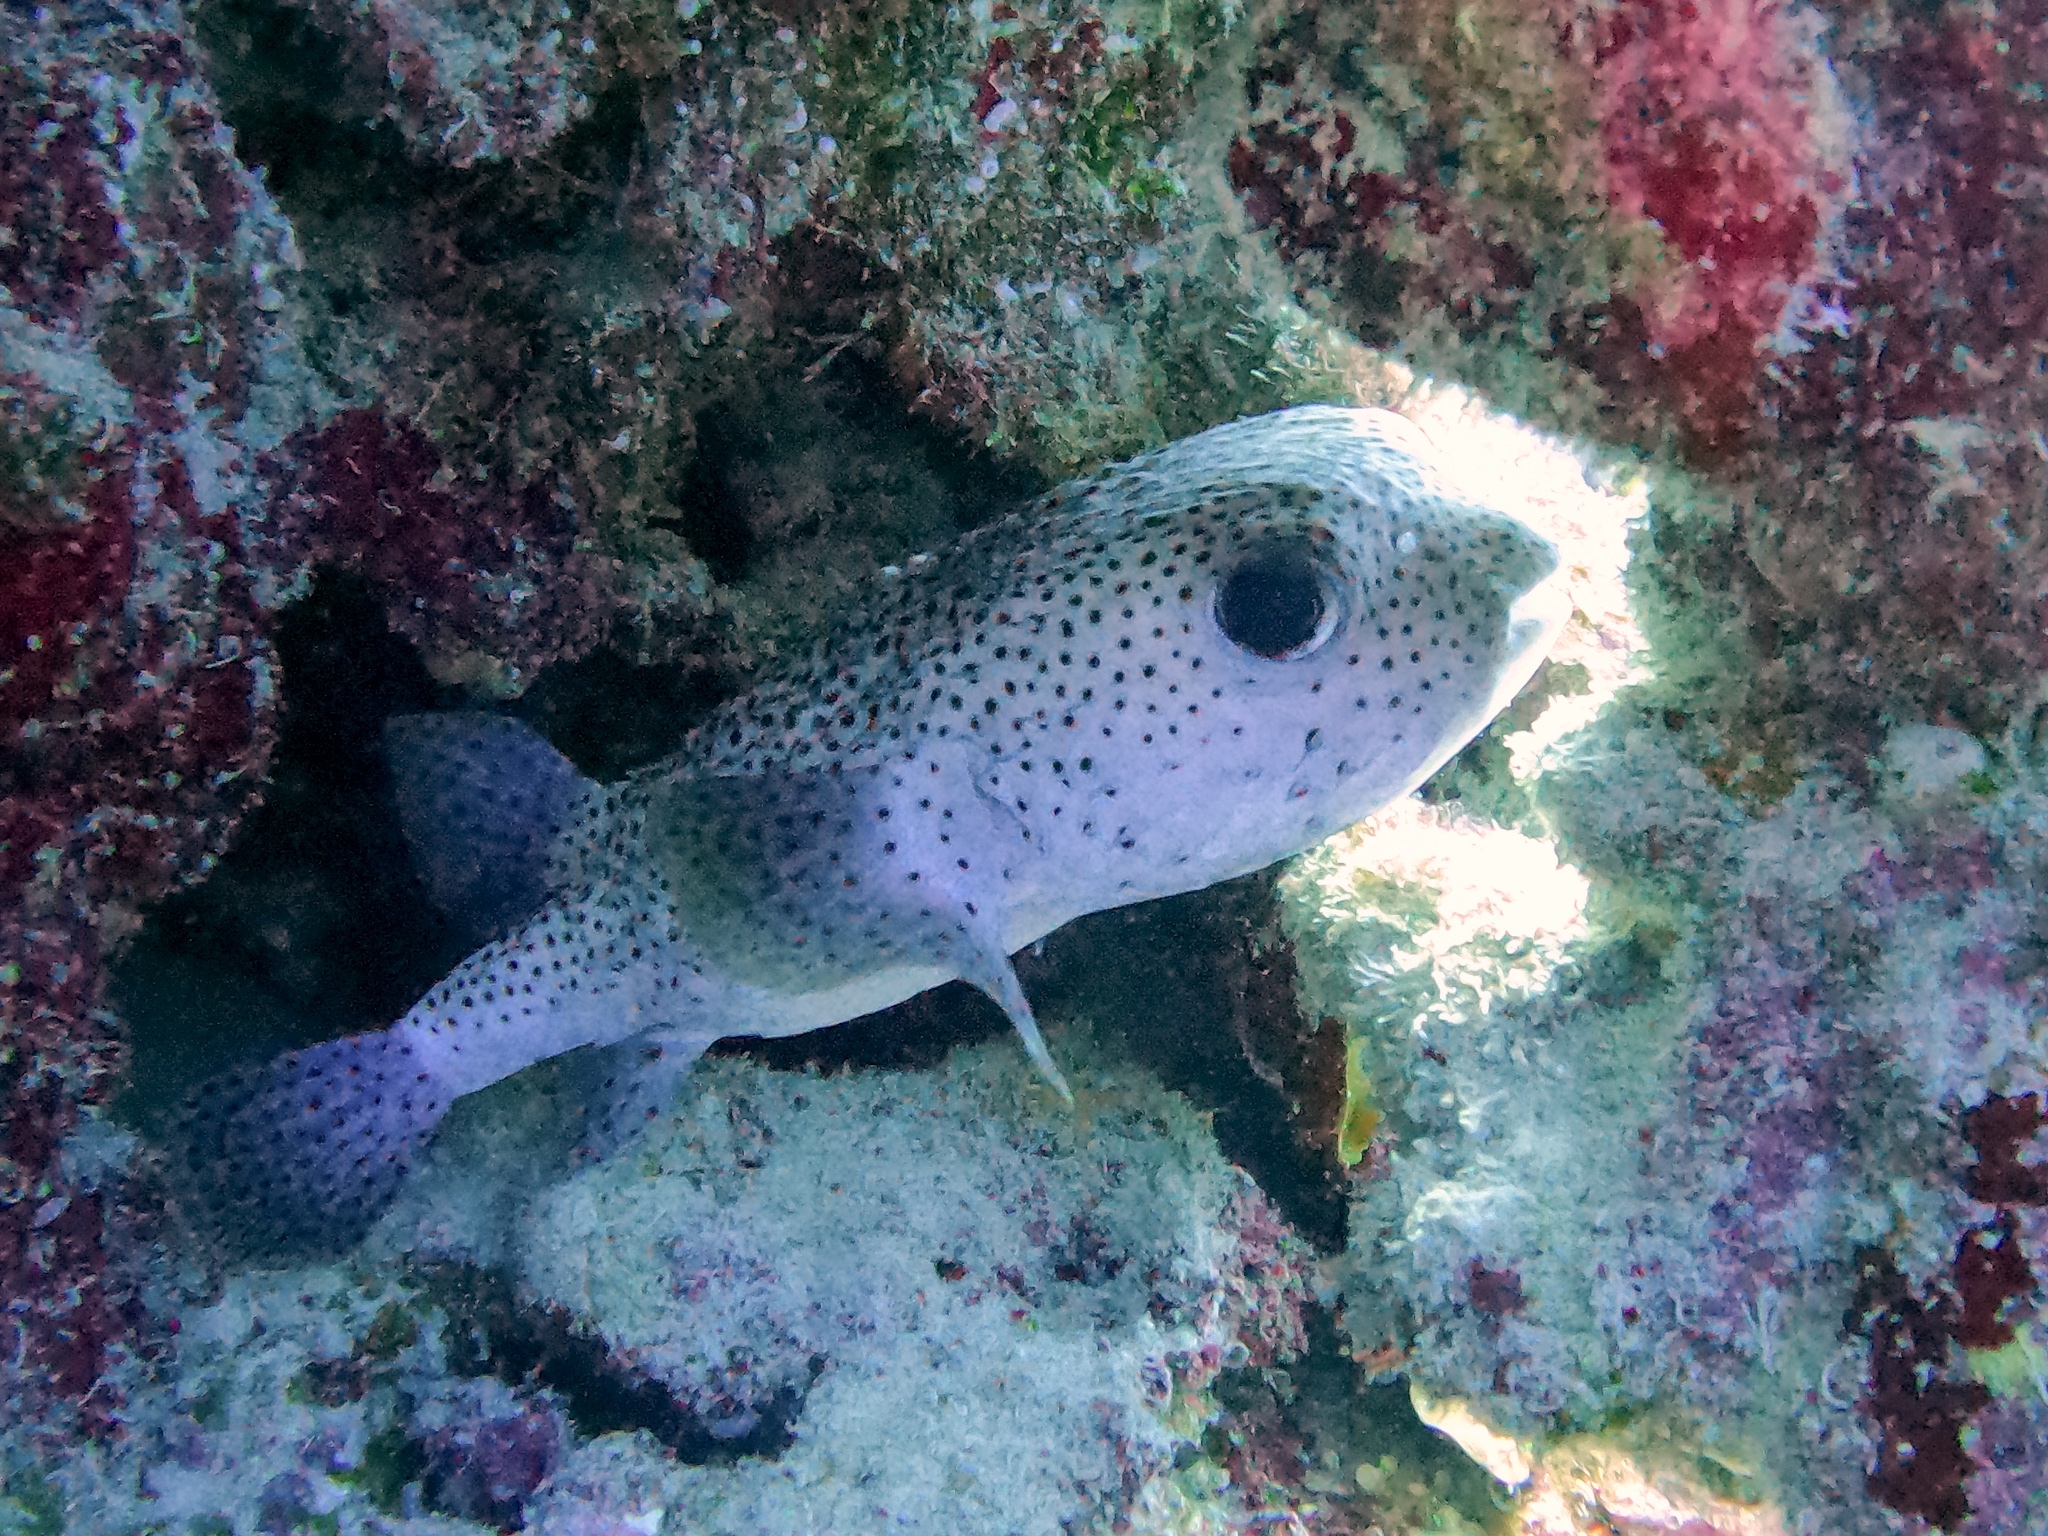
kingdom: Animalia
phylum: Chordata
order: Tetraodontiformes
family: Diodontidae
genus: Diodon
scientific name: Diodon hystrix
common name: Giant porcupinefish
